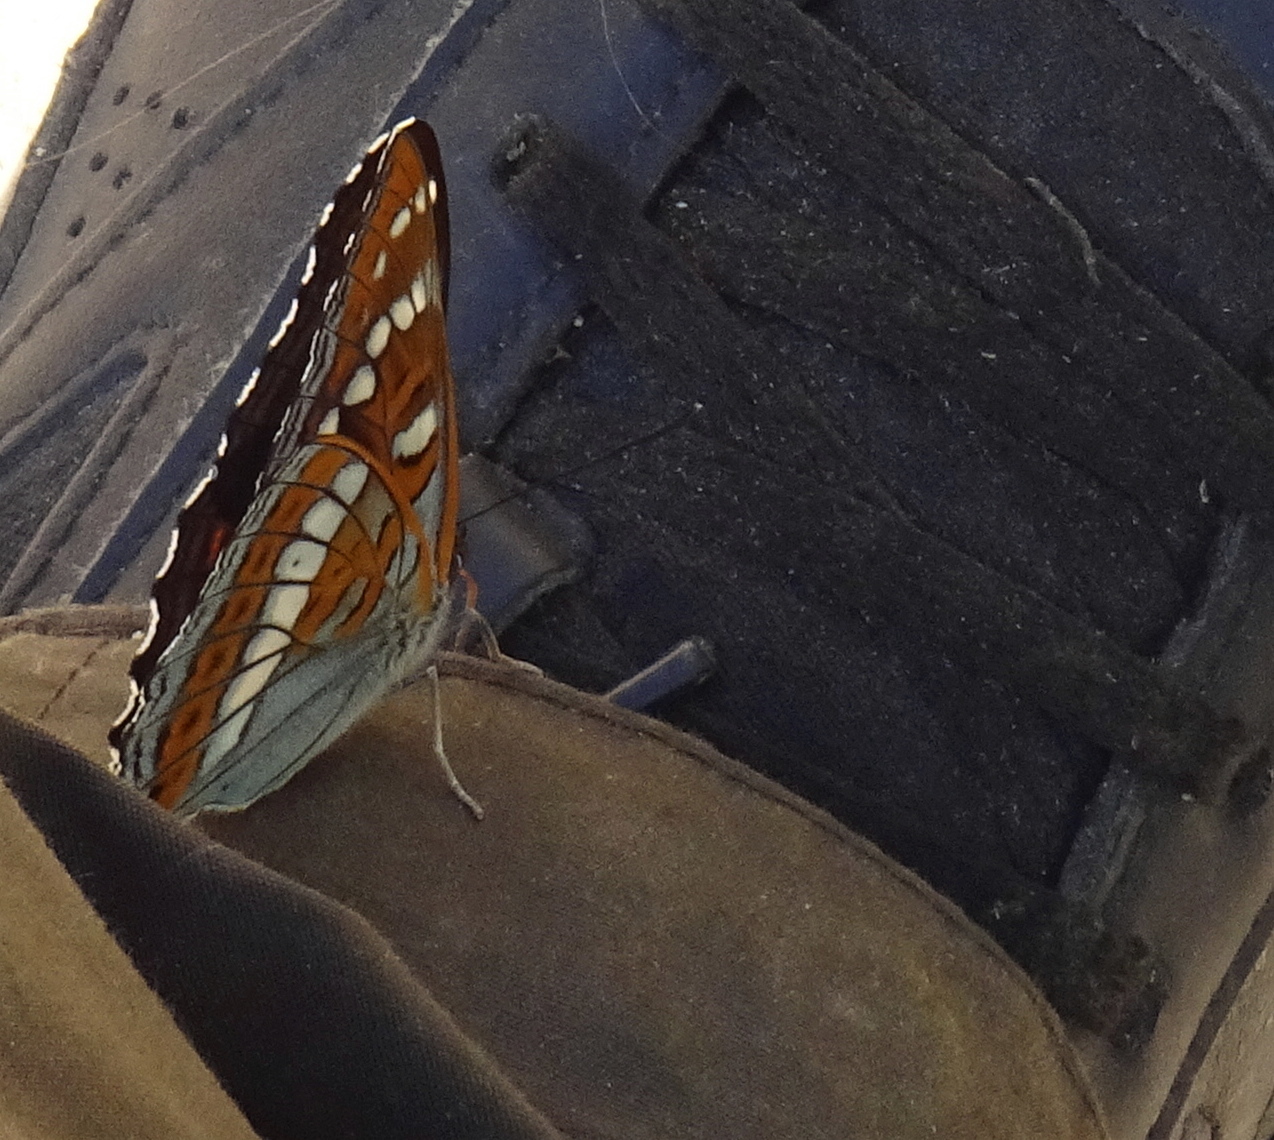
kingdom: Animalia
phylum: Arthropoda
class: Insecta
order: Lepidoptera
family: Nymphalidae
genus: Limenitis
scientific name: Limenitis populi
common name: Poplar admiral
